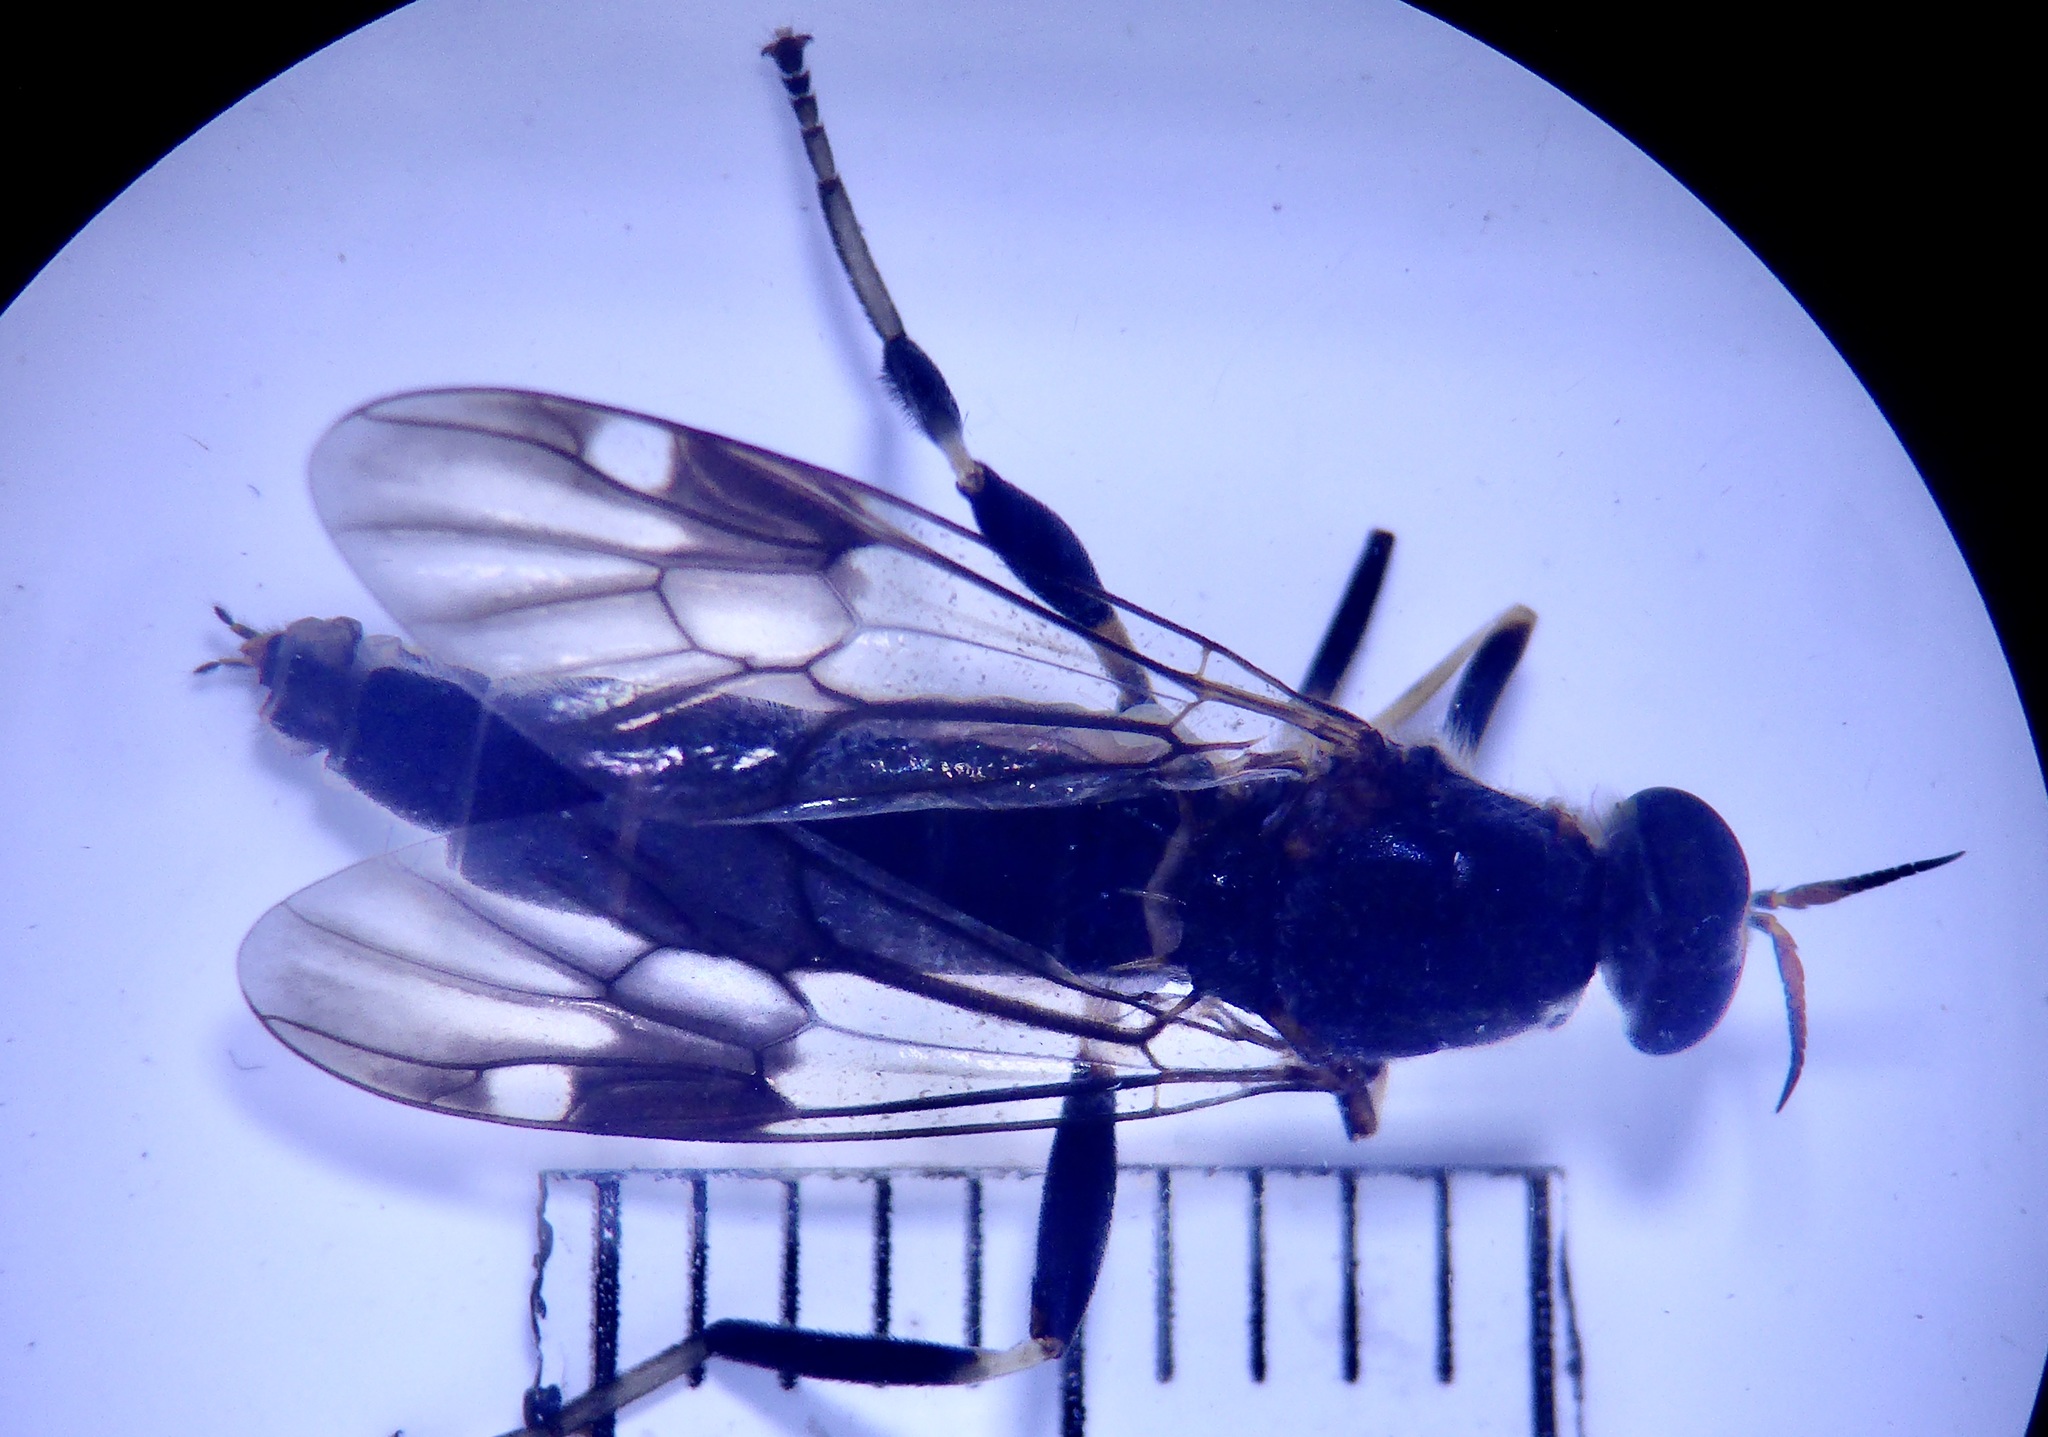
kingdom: Animalia
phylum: Arthropoda
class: Insecta
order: Diptera
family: Stratiomyidae
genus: Exaireta
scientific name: Exaireta spinigera
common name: Blue soldier fly
